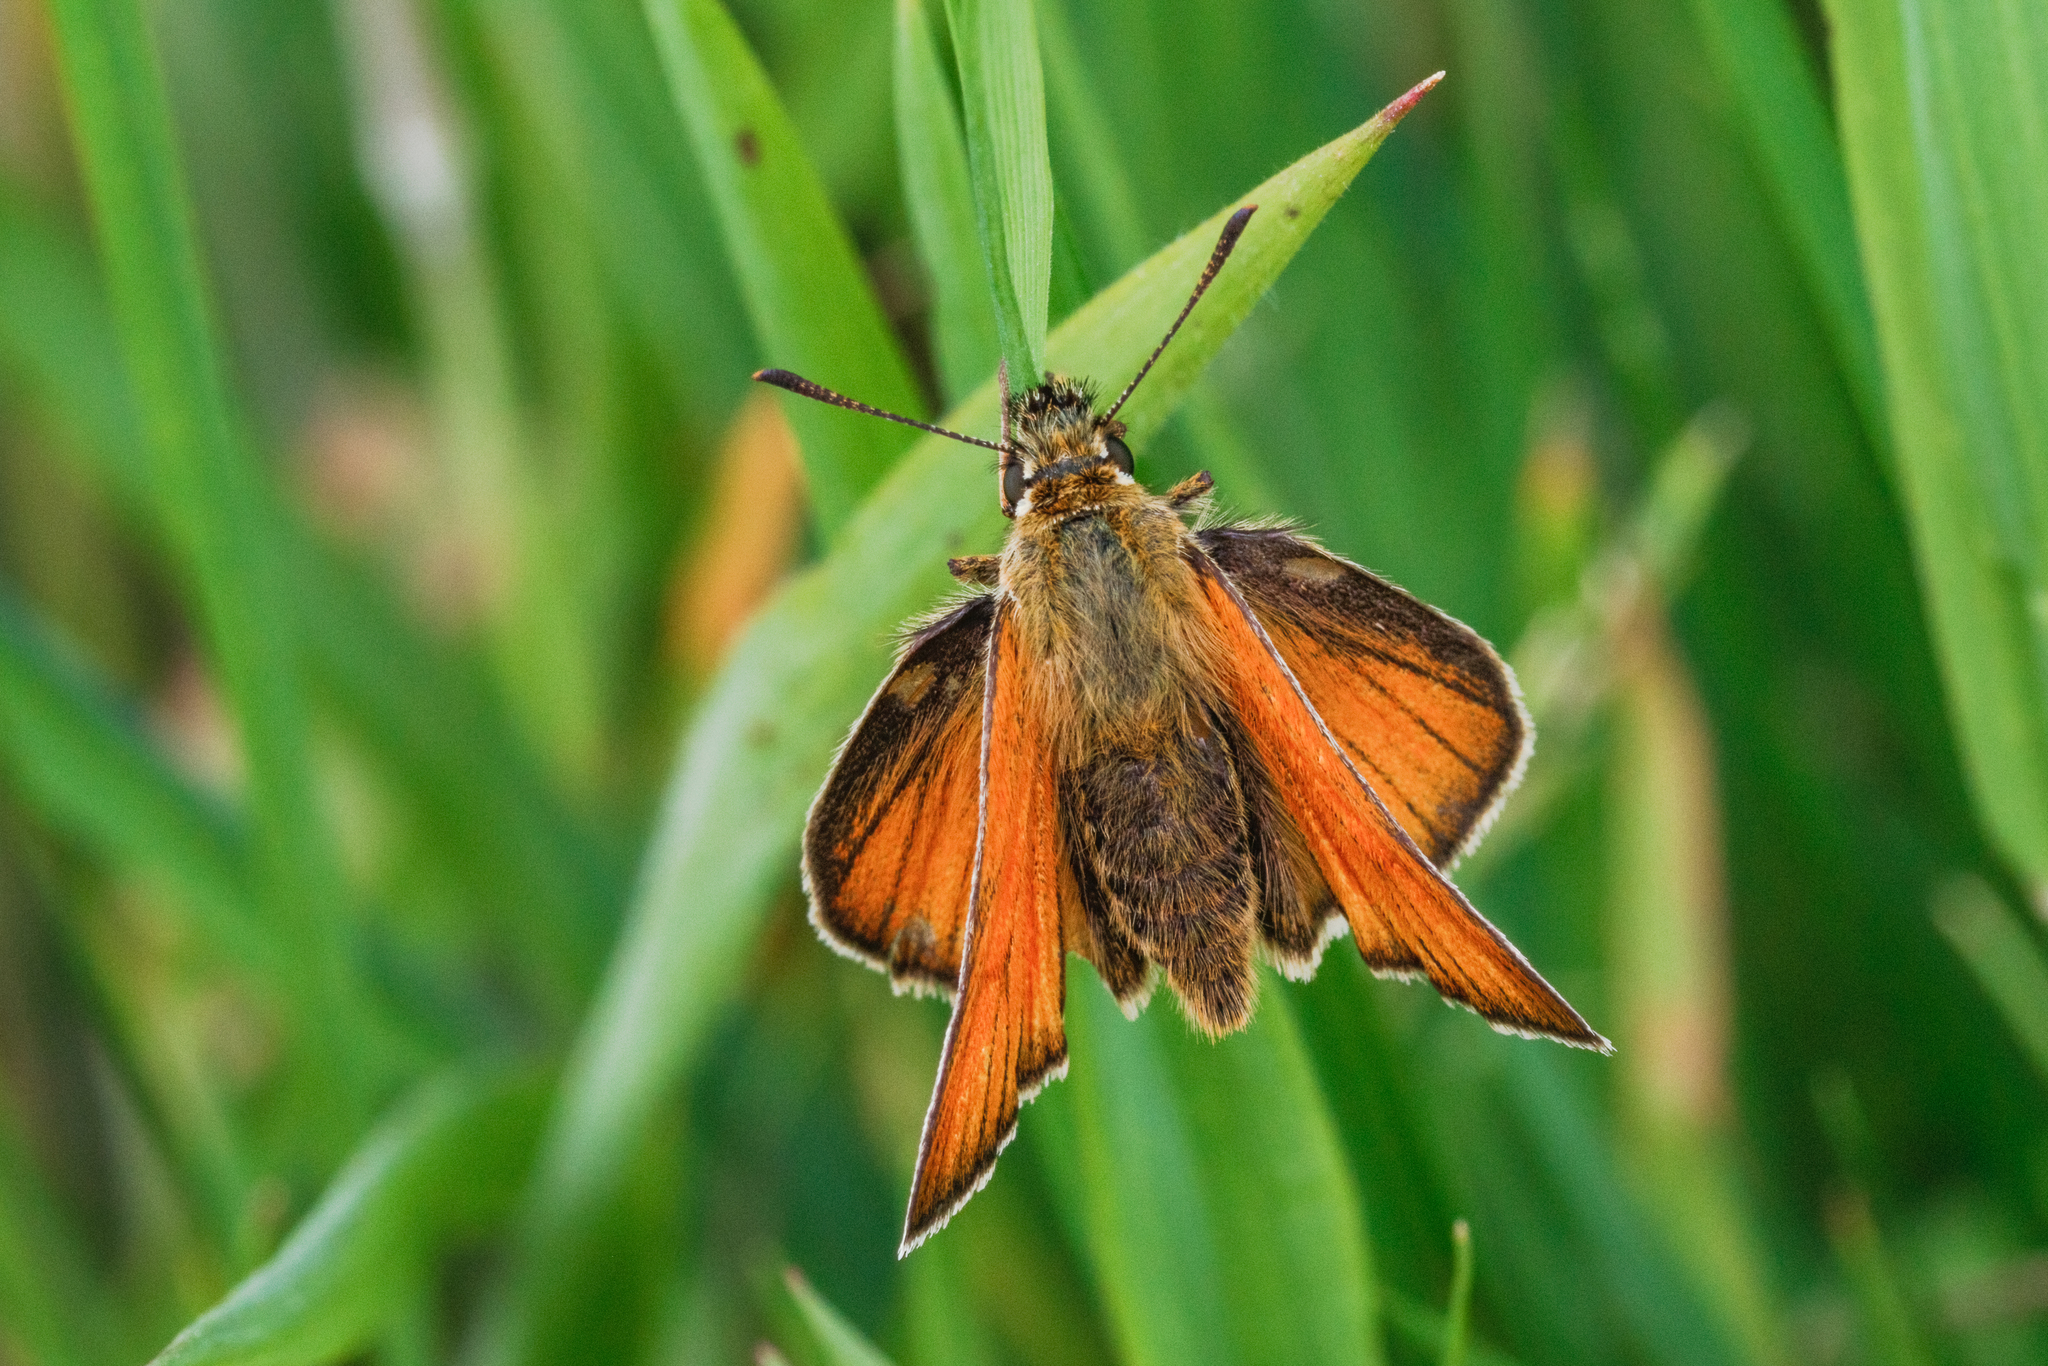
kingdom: Animalia
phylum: Arthropoda
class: Insecta
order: Lepidoptera
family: Hesperiidae
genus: Thymelicus
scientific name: Thymelicus sylvestris
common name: Small skipper
